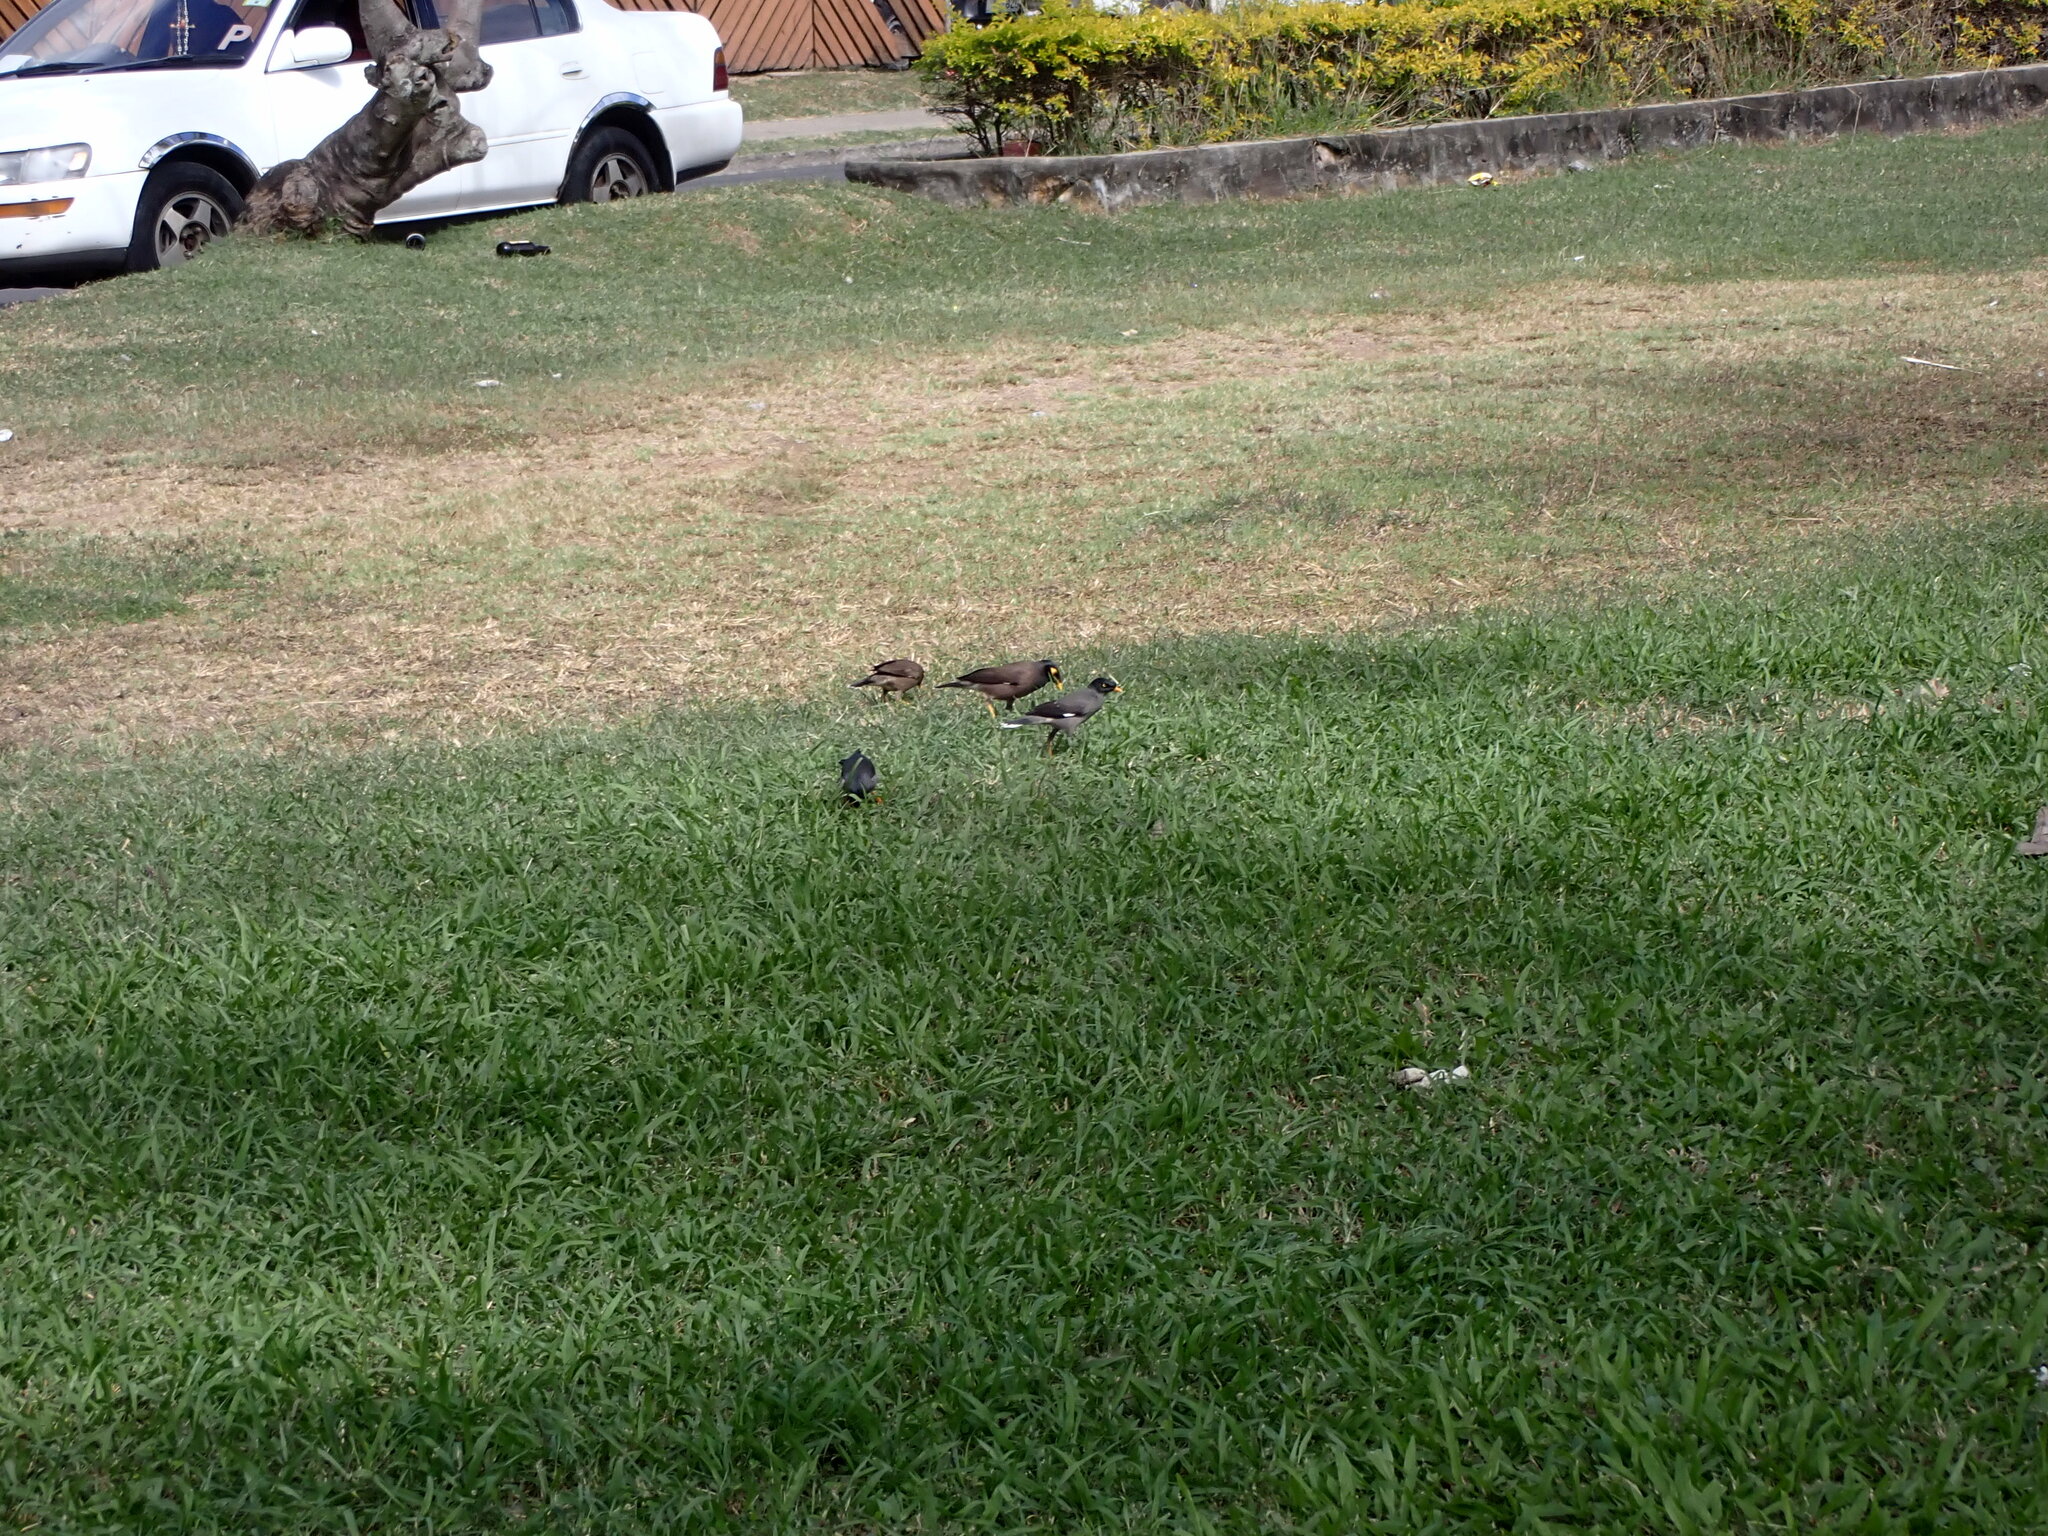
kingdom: Animalia
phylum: Chordata
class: Aves
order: Passeriformes
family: Sturnidae
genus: Acridotheres
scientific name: Acridotheres fuscus
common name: Jungle myna
